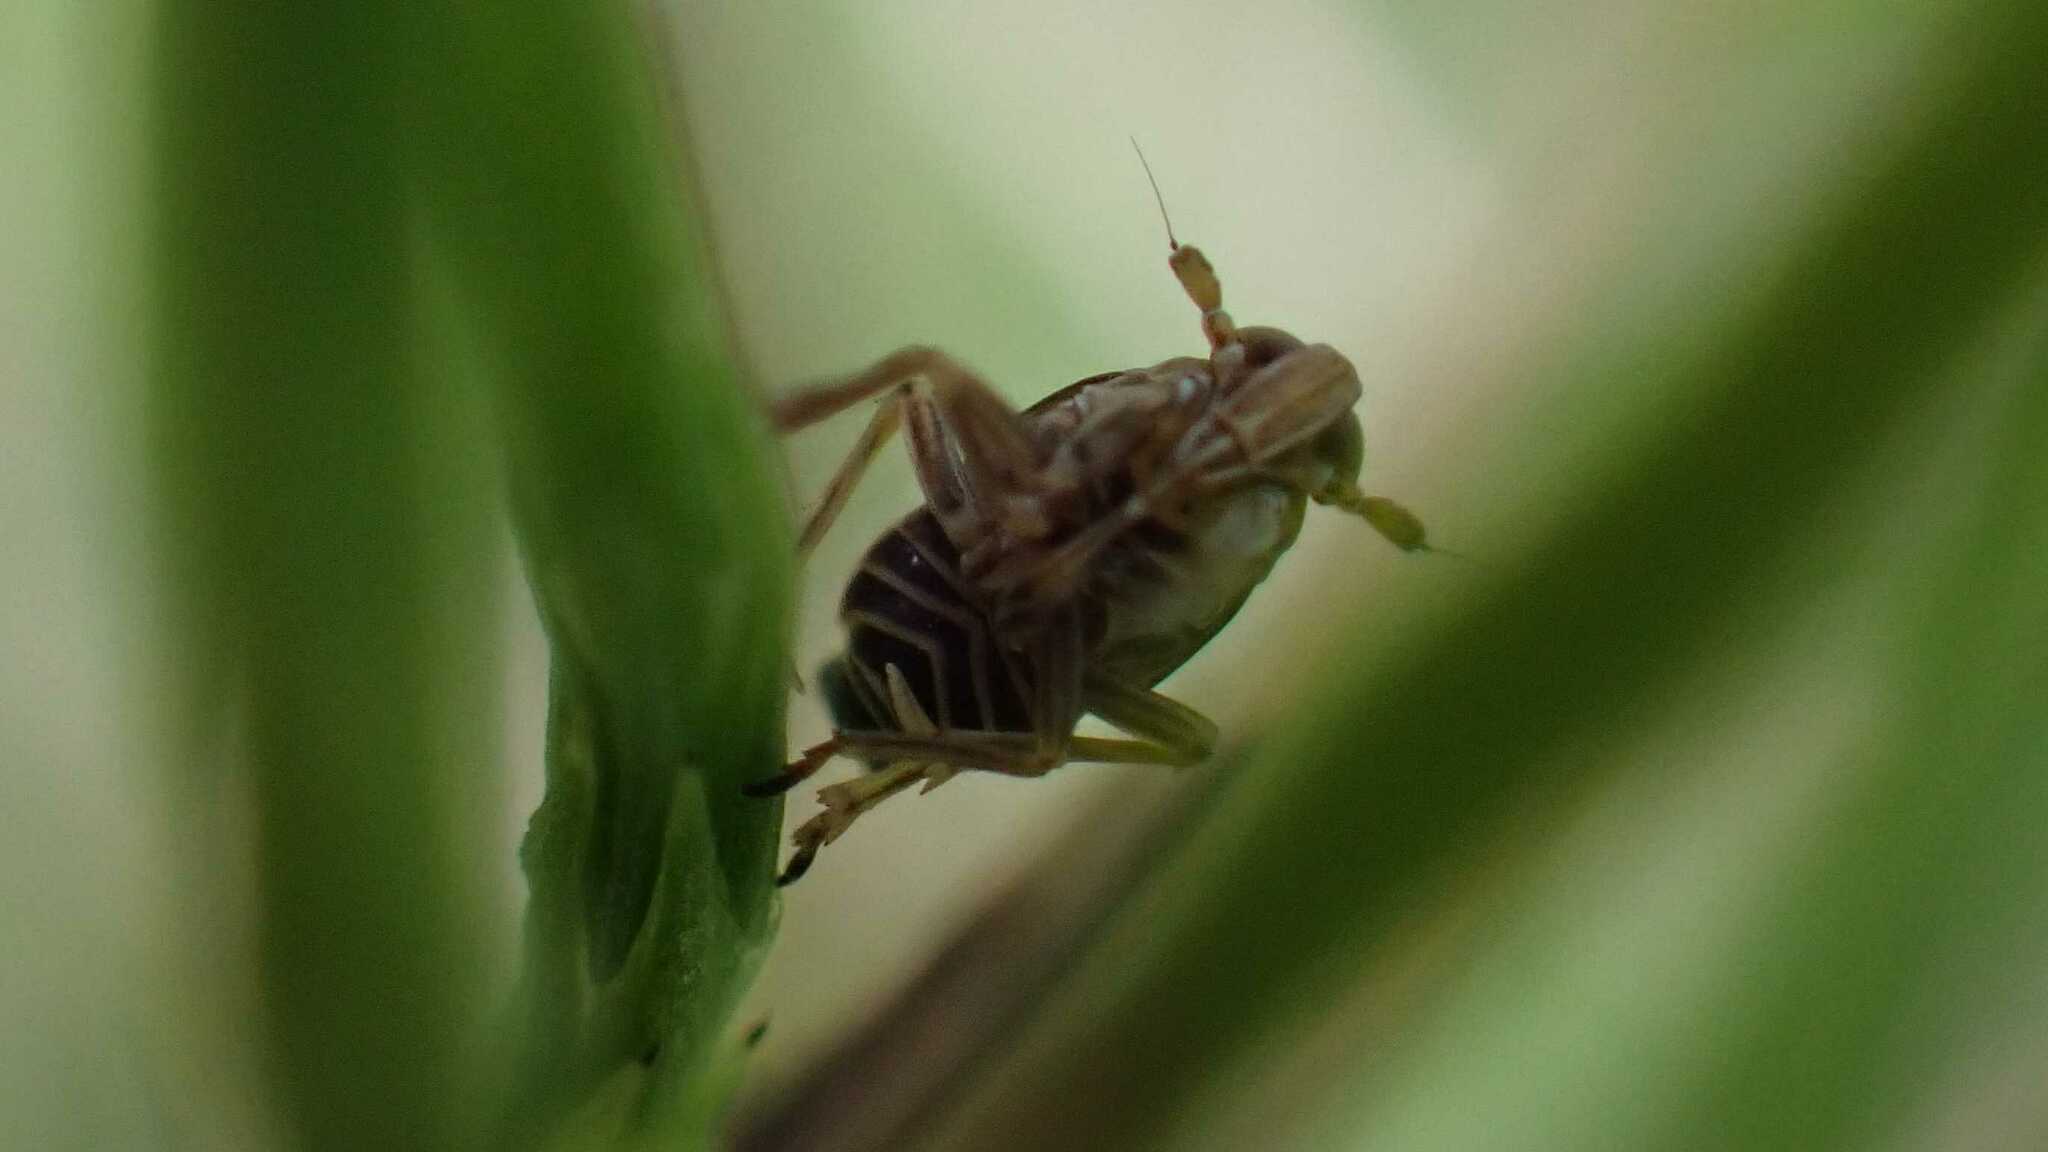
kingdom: Animalia
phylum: Arthropoda
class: Insecta
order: Hemiptera
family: Delphacidae
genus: Javesella
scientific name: Javesella stali
